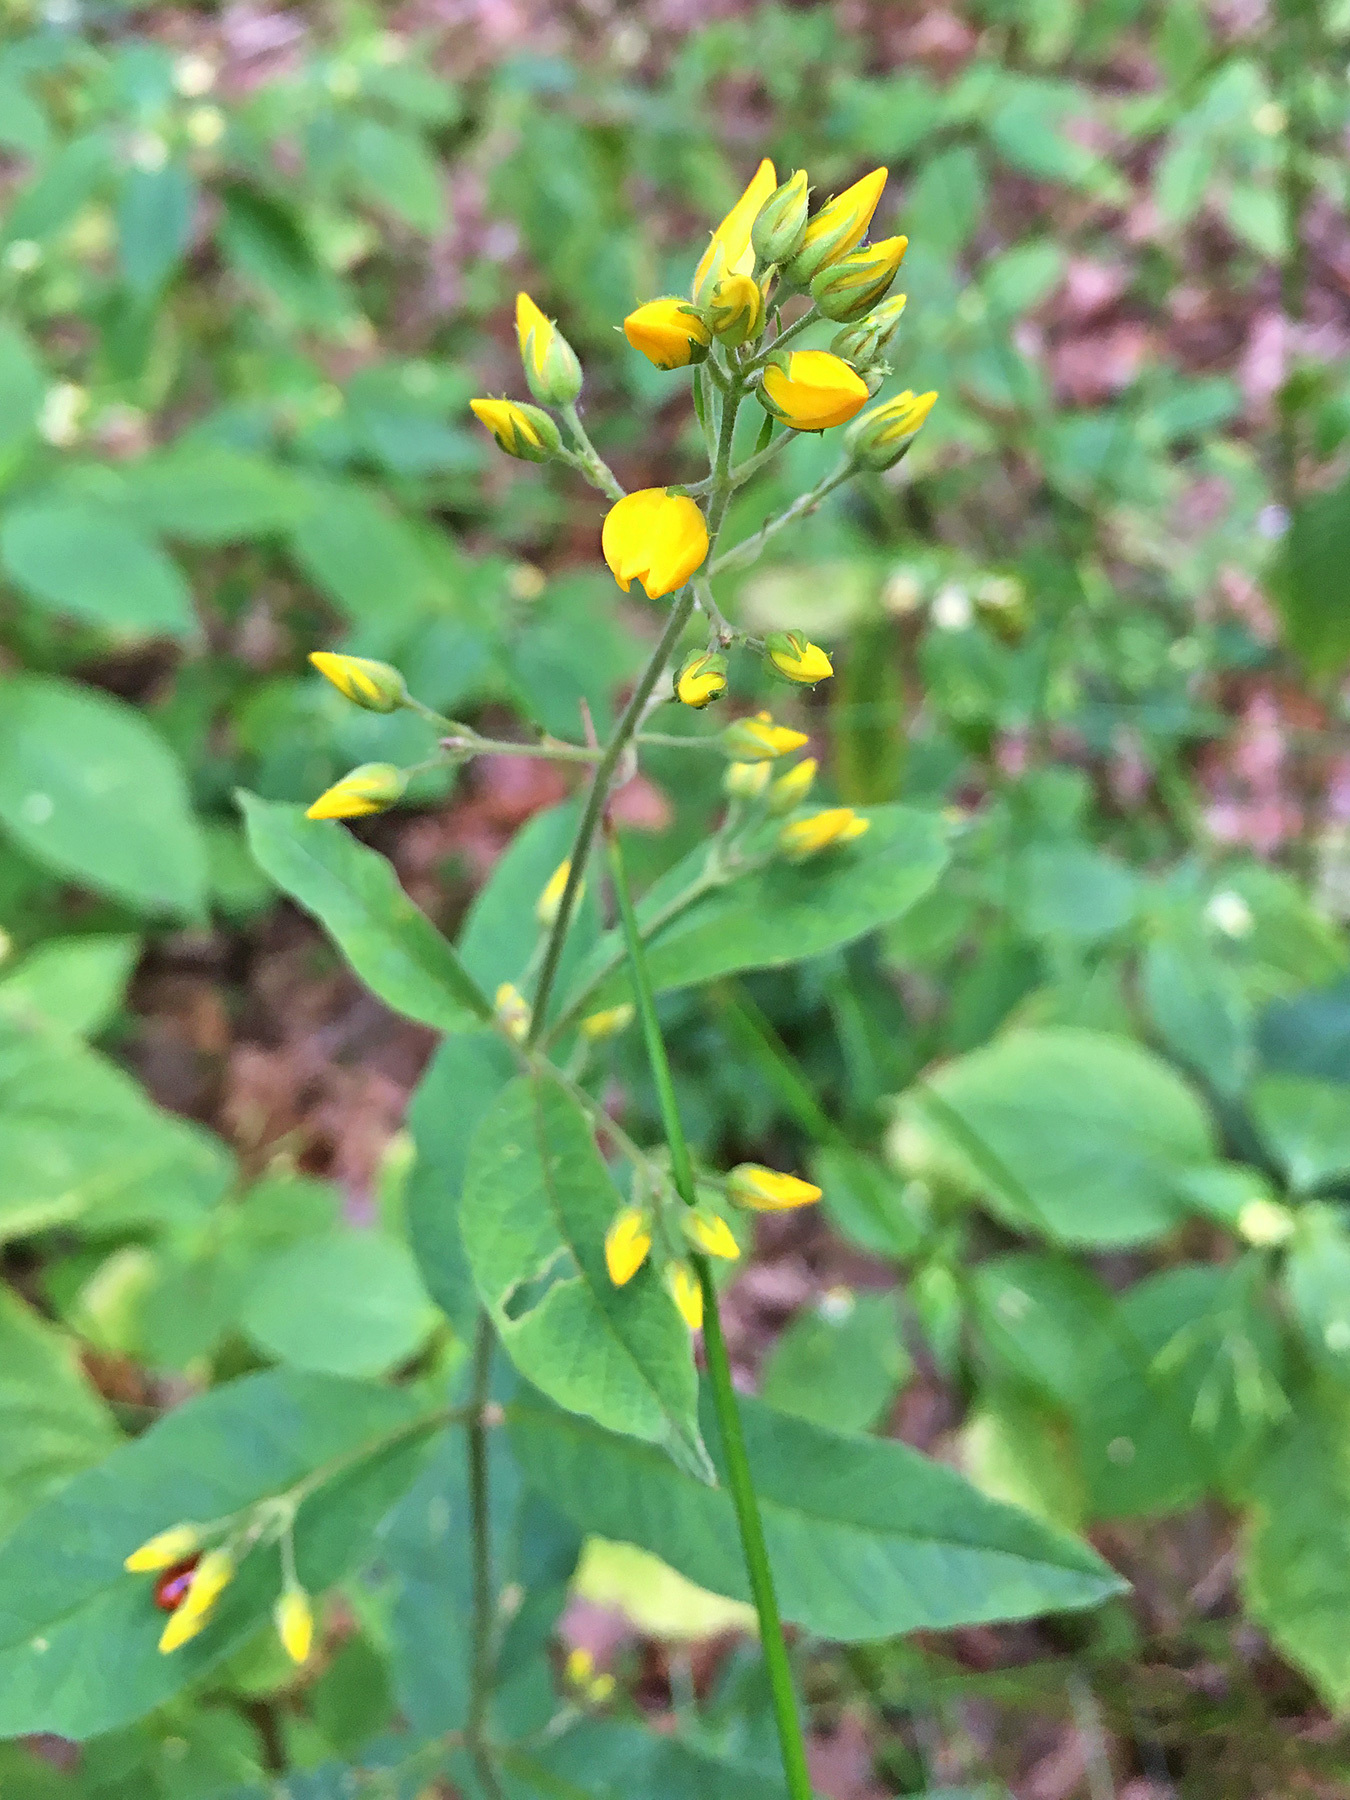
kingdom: Plantae
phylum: Tracheophyta
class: Magnoliopsida
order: Ericales
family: Primulaceae
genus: Lysimachia
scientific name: Lysimachia vulgaris
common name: Yellow loosestrife
